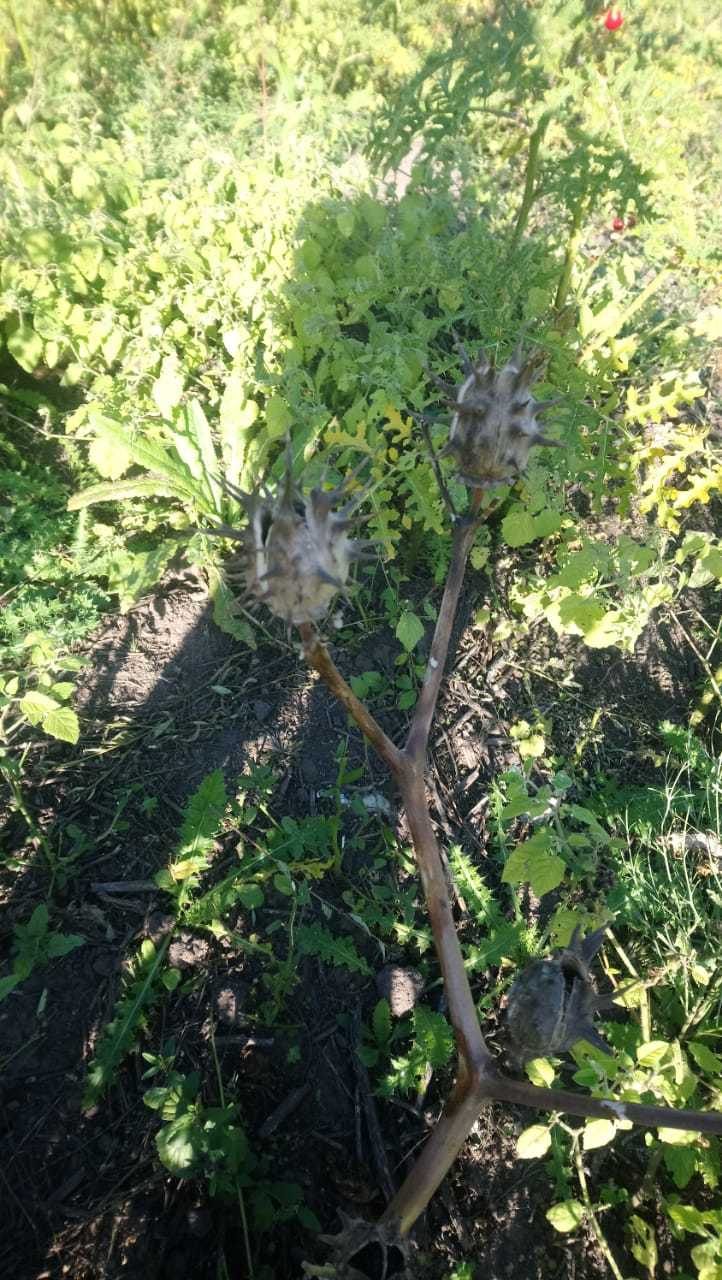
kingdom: Plantae
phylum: Tracheophyta
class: Magnoliopsida
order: Solanales
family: Solanaceae
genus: Datura
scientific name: Datura ferox
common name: Angel's-trumpets
